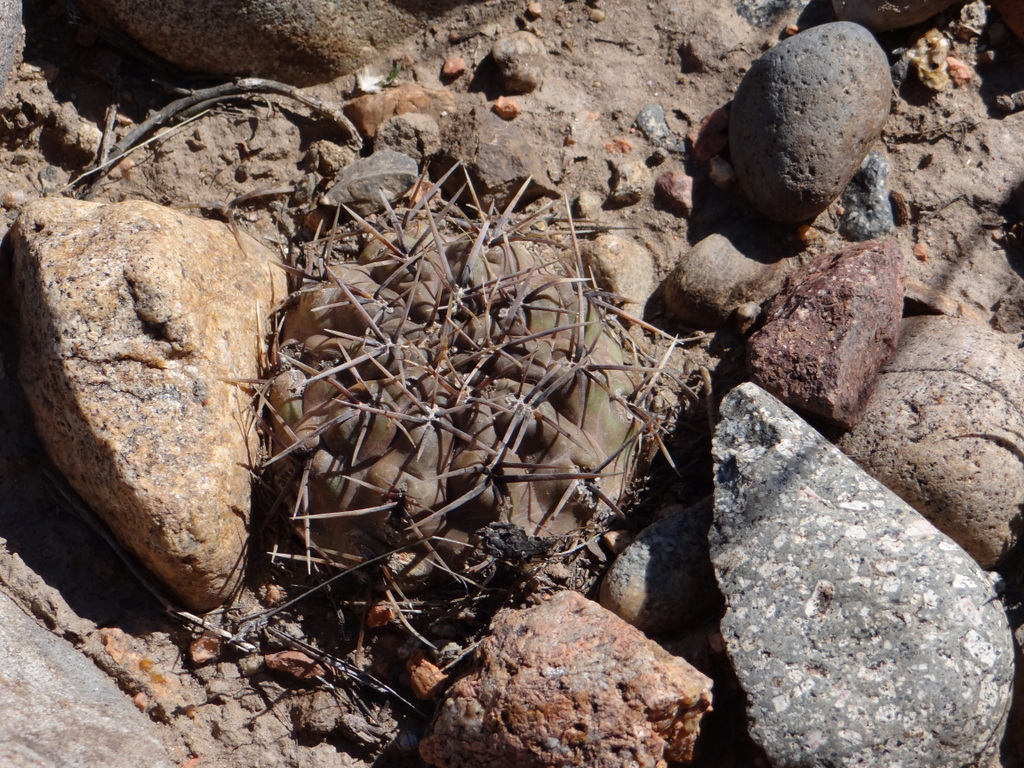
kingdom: Plantae
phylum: Tracheophyta
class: Magnoliopsida
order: Caryophyllales
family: Cactaceae
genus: Gymnocalycium
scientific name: Gymnocalycium striglianum
